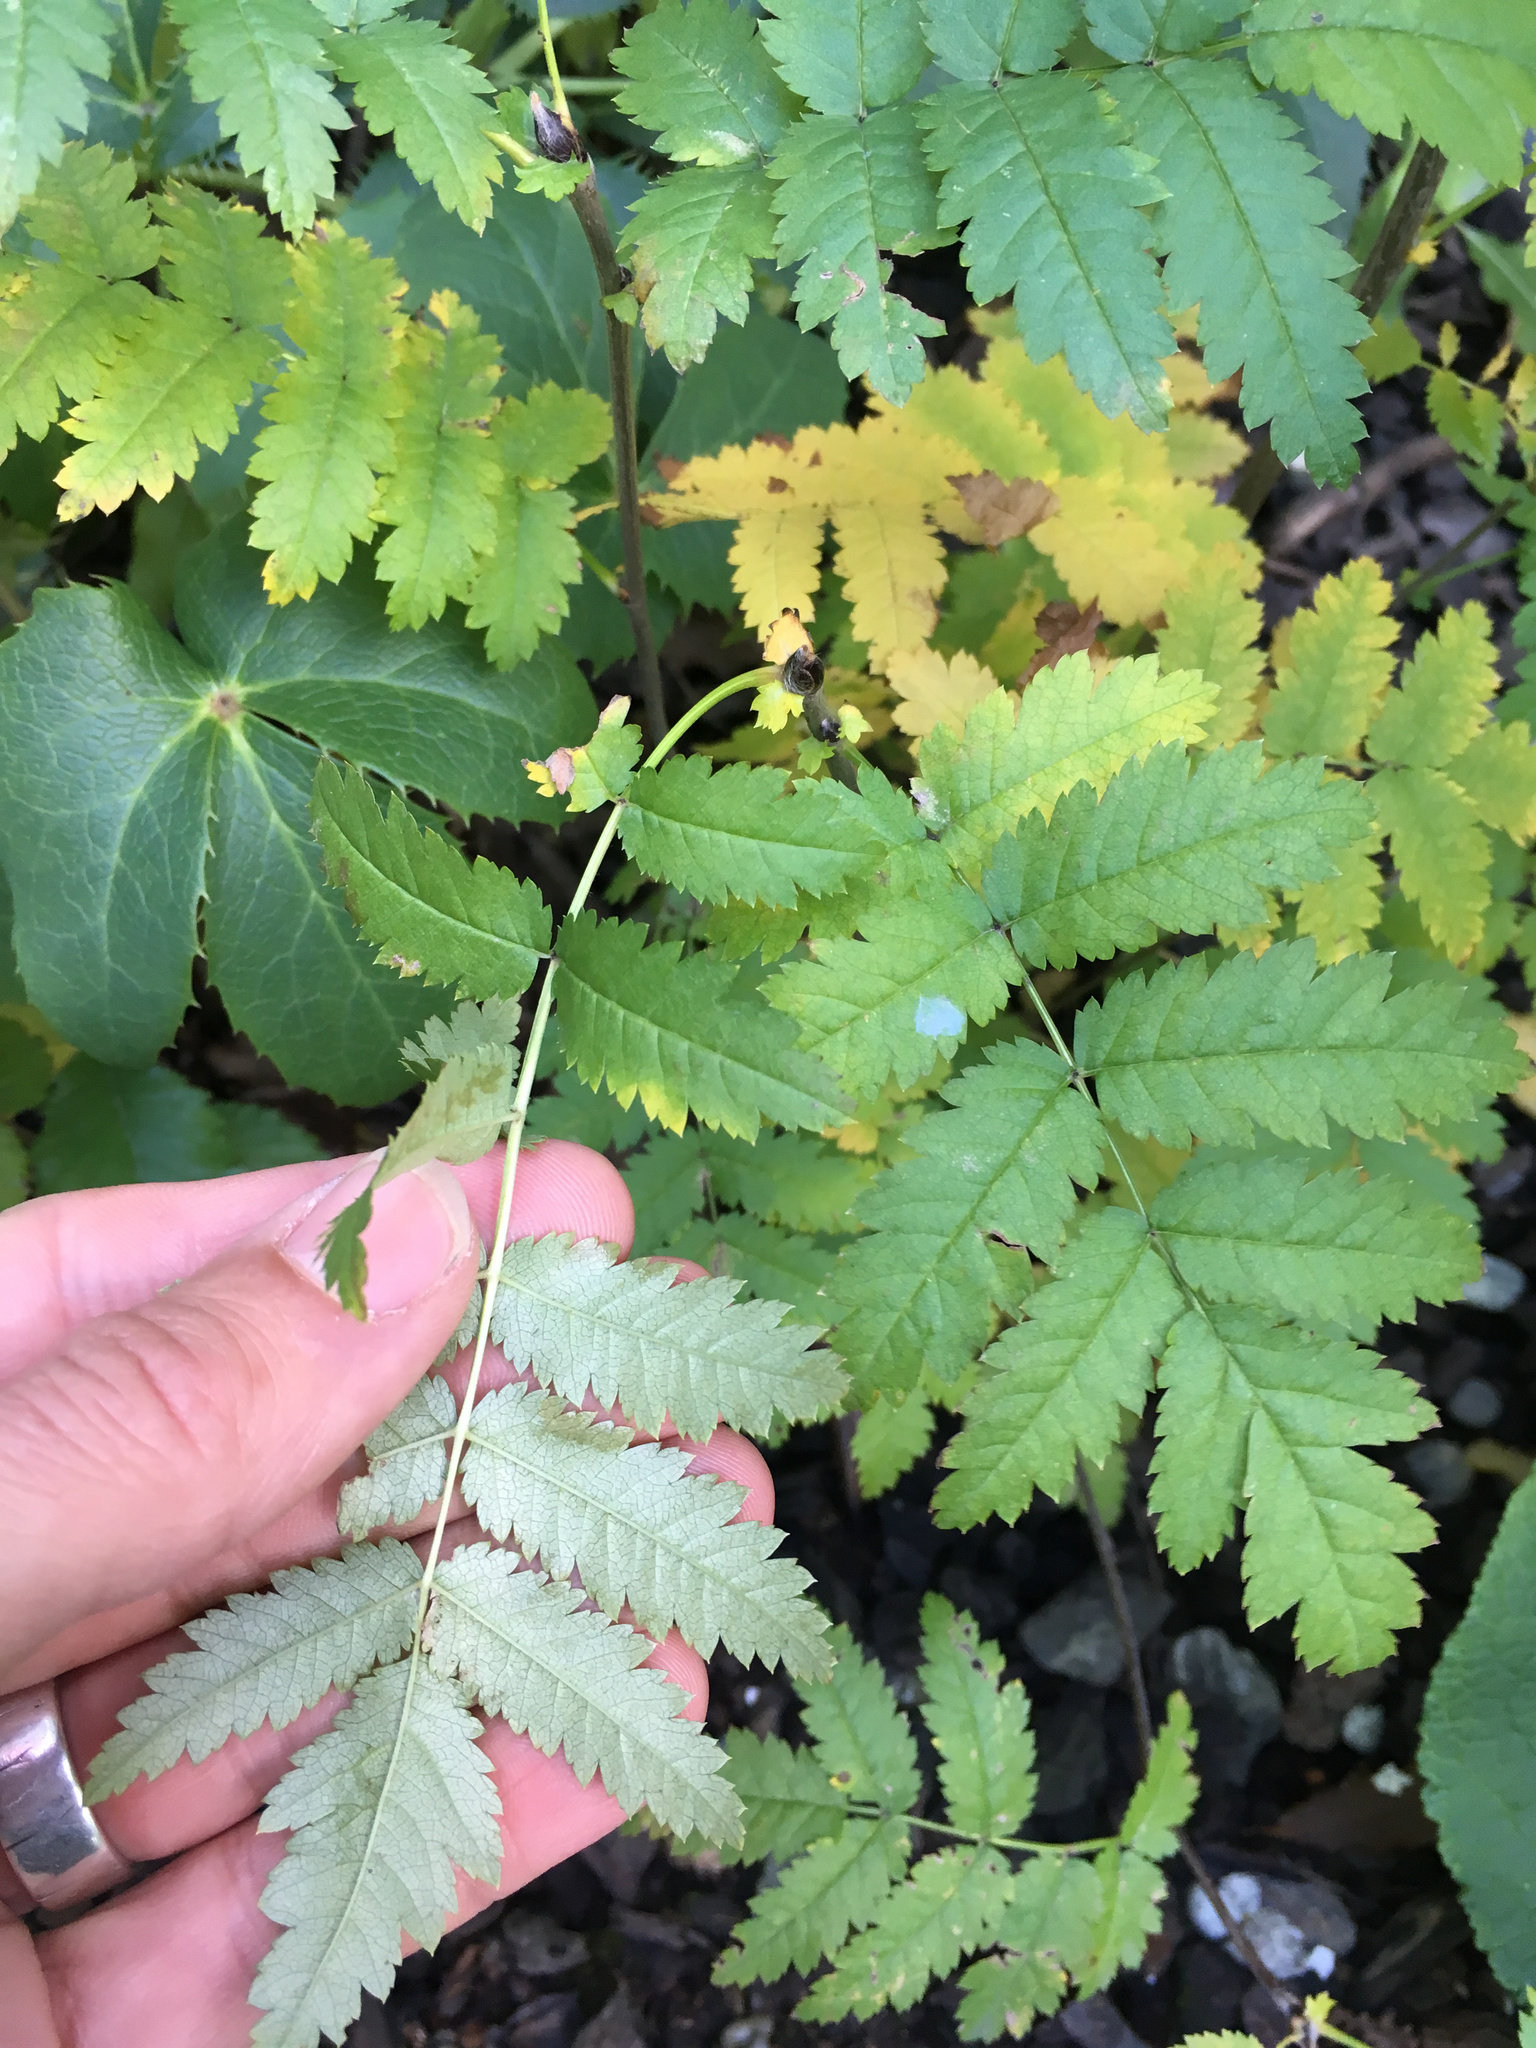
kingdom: Plantae
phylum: Tracheophyta
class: Magnoliopsida
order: Rosales
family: Rosaceae
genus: Sorbus
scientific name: Sorbus aucuparia
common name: Rowan
